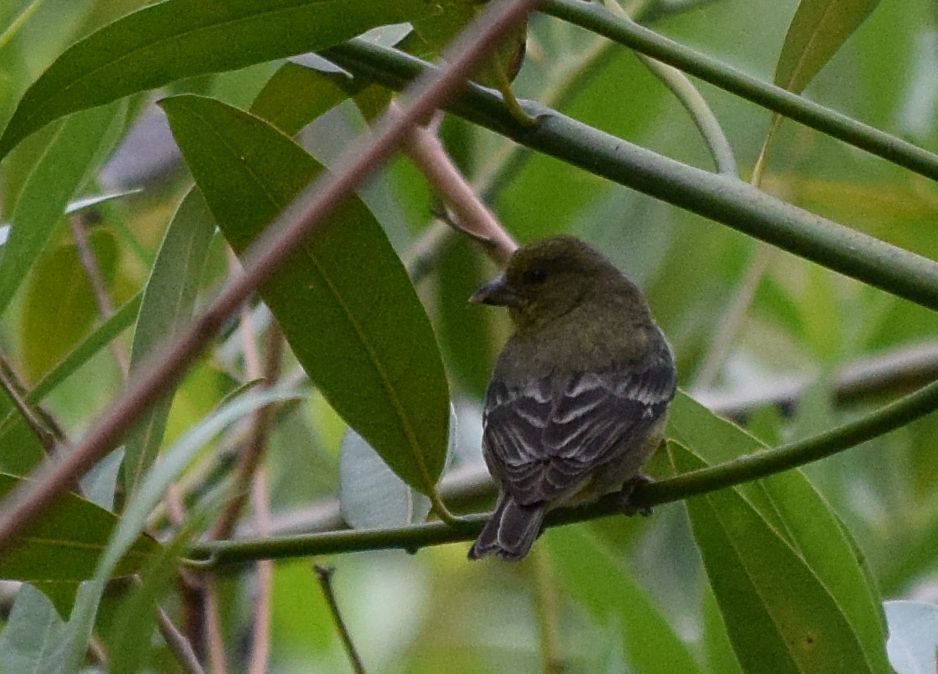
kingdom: Animalia
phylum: Chordata
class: Aves
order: Passeriformes
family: Fringillidae
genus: Spinus
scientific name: Spinus psaltria
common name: Lesser goldfinch
